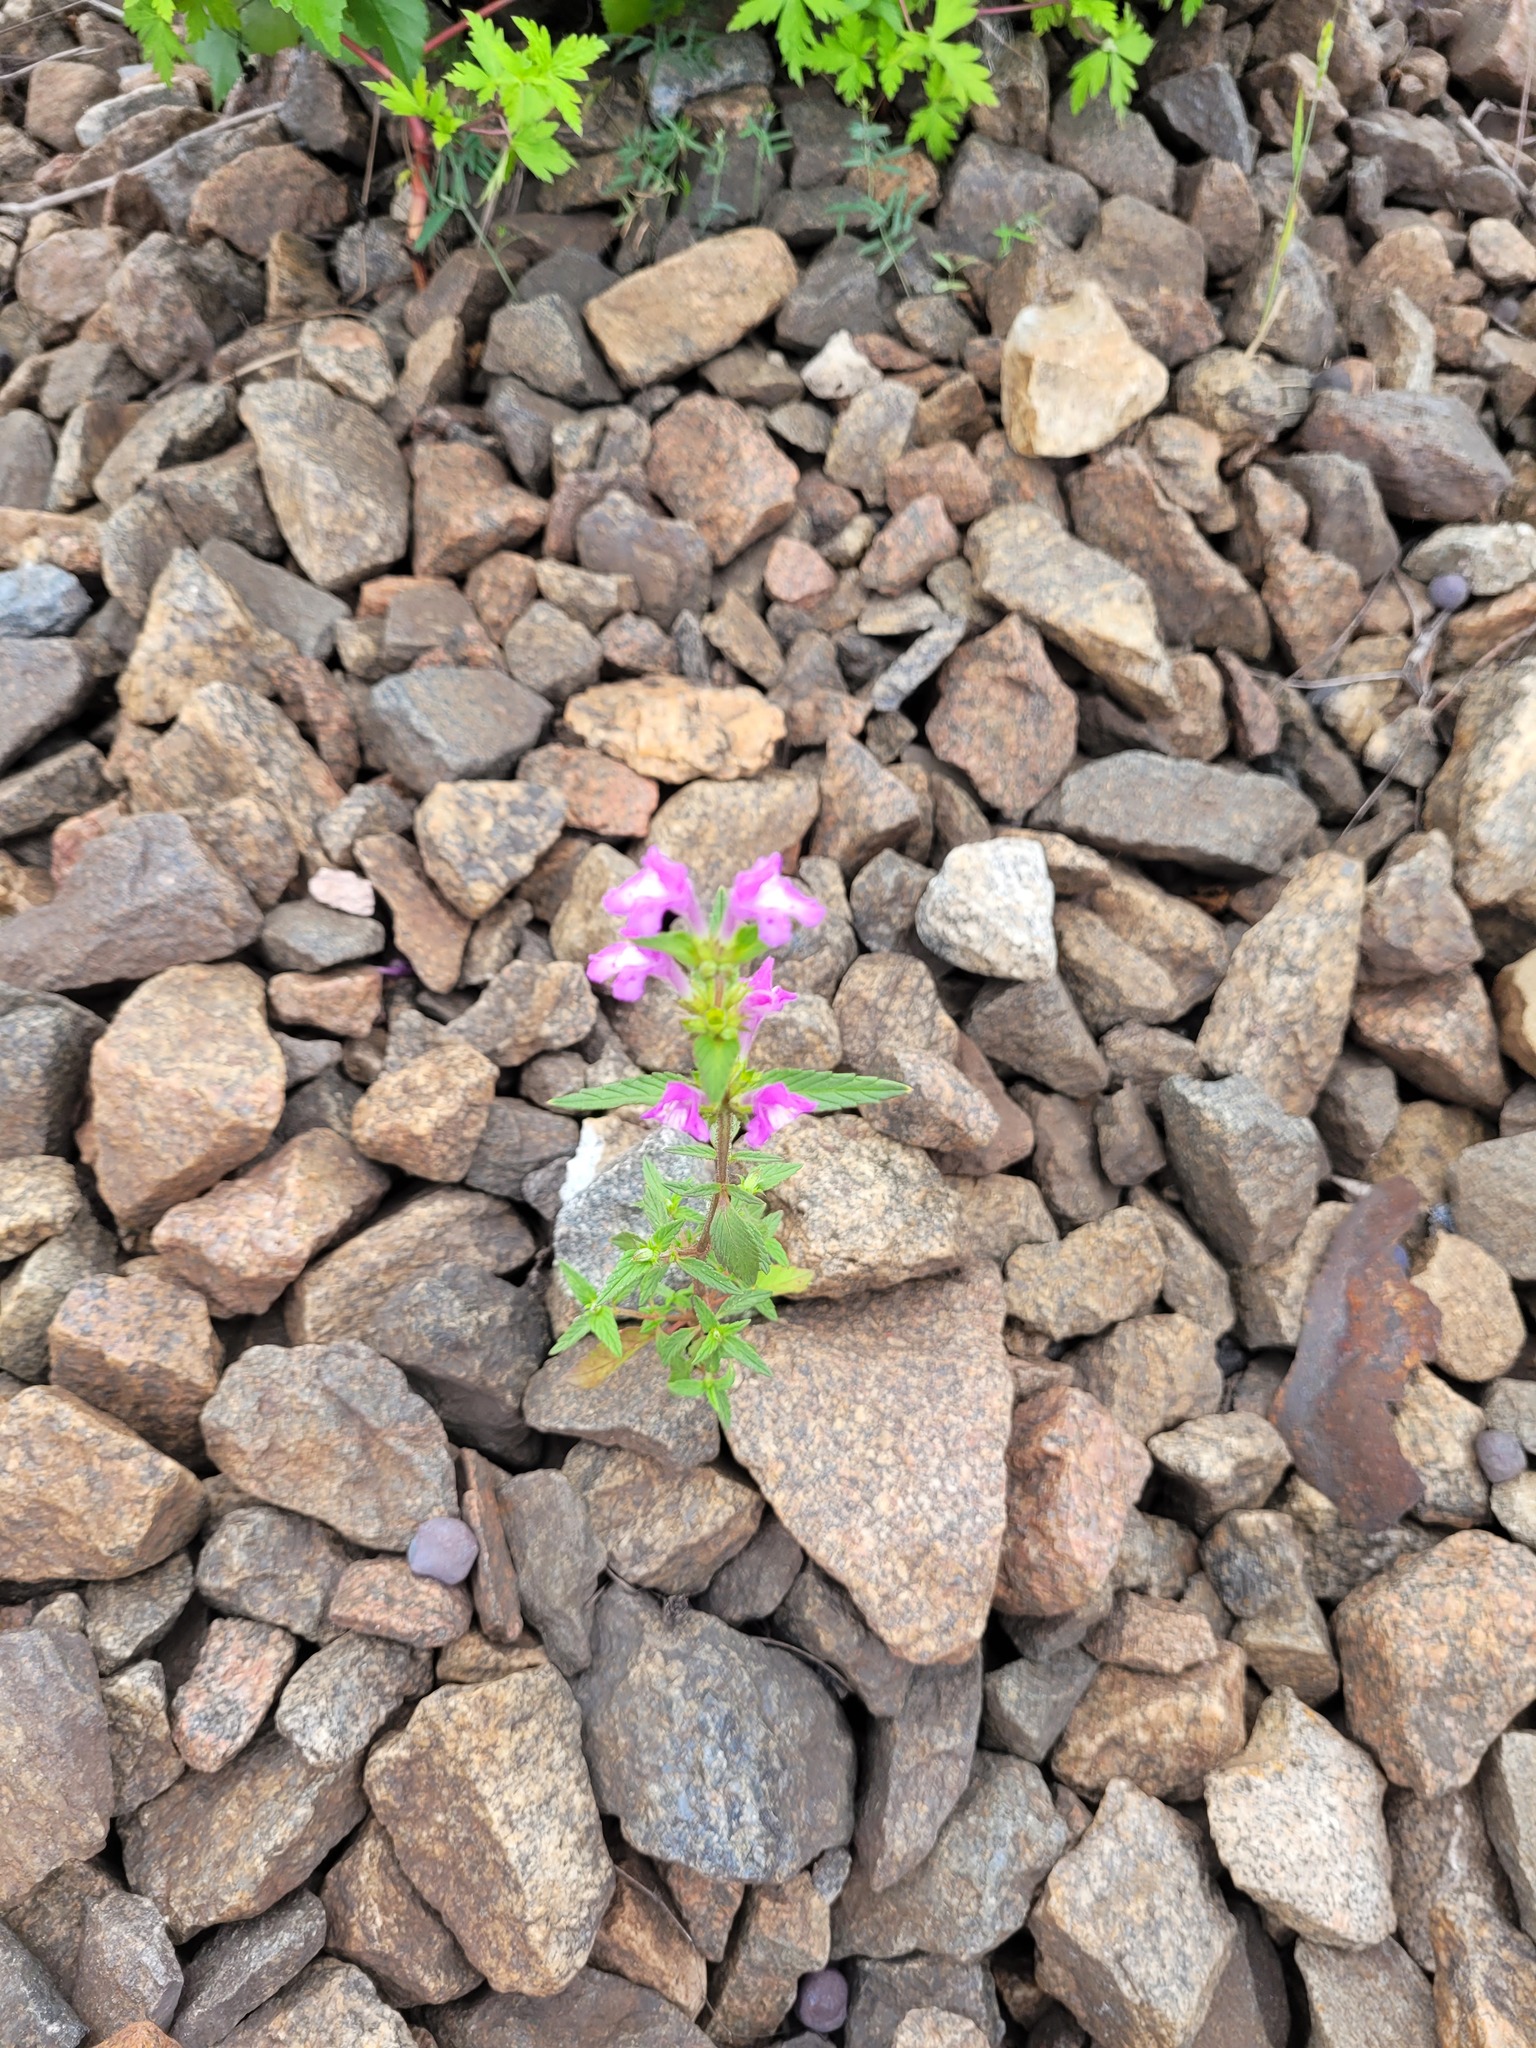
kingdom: Plantae
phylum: Tracheophyta
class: Magnoliopsida
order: Lamiales
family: Lamiaceae
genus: Galeopsis
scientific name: Galeopsis ladanum
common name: Broad-leaved hemp-nettle
